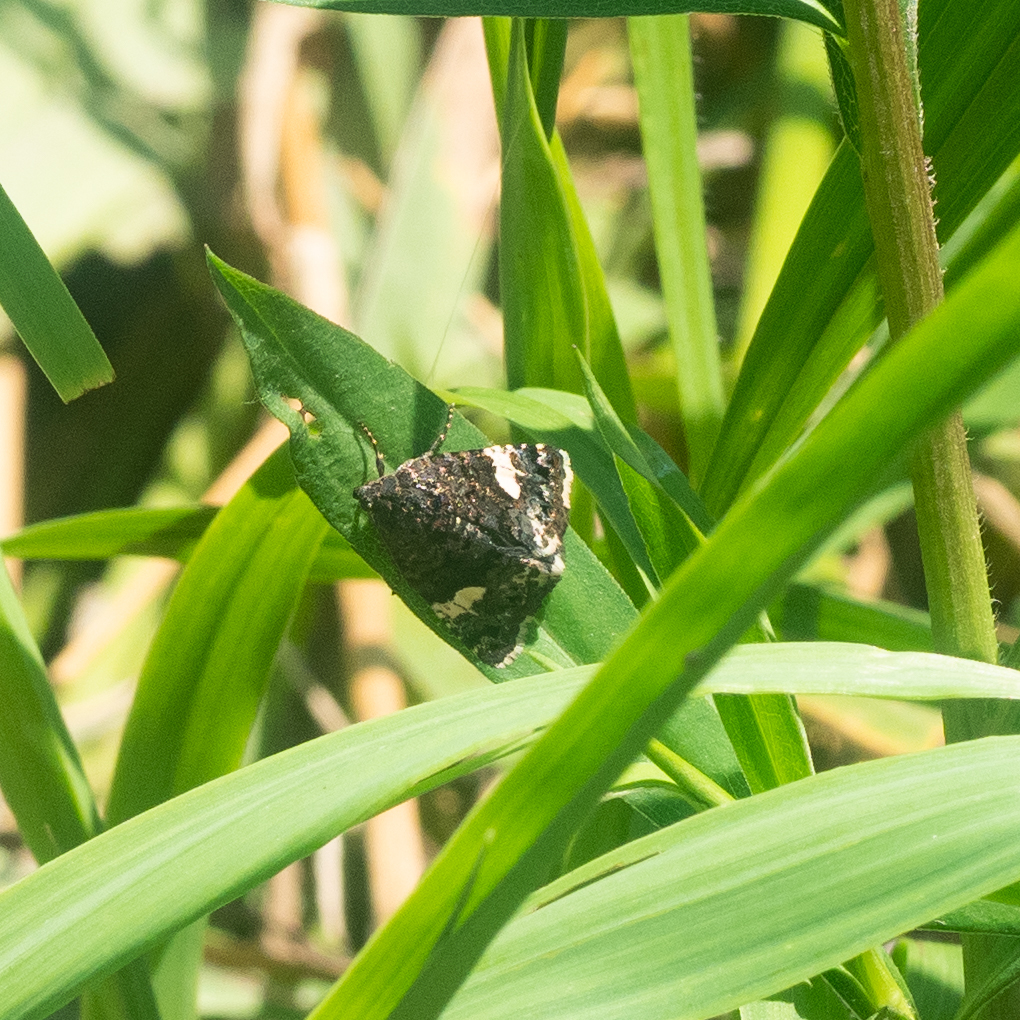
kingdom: Animalia
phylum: Arthropoda
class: Insecta
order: Lepidoptera
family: Erebidae
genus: Tyta
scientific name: Tyta luctuosa
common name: Four-spotted
